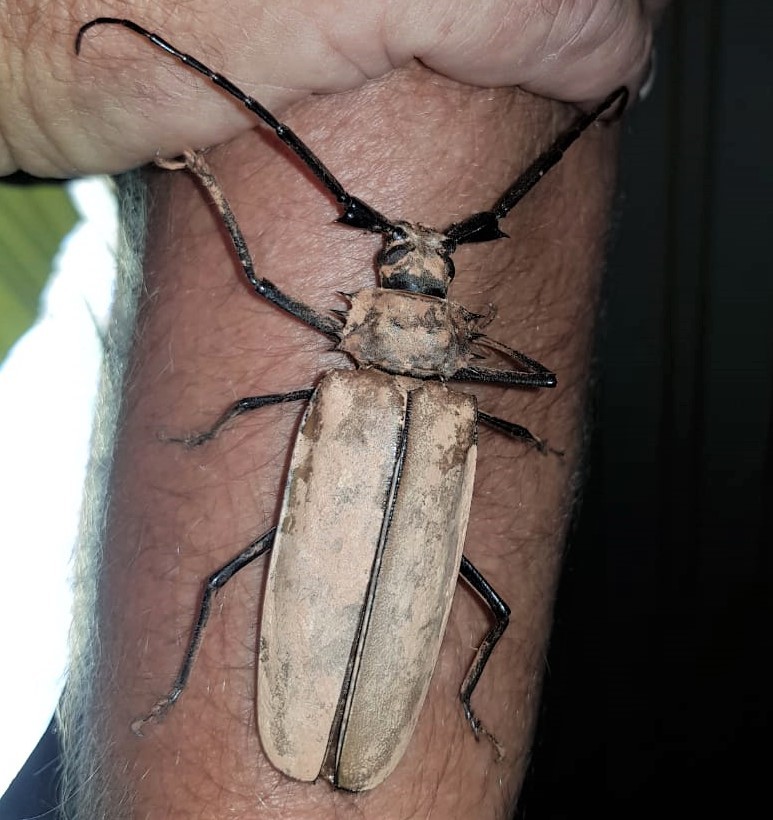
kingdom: Animalia
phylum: Arthropoda
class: Insecta
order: Coleoptera
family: Cerambycidae
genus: Enoplocerus
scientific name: Enoplocerus armillatus
